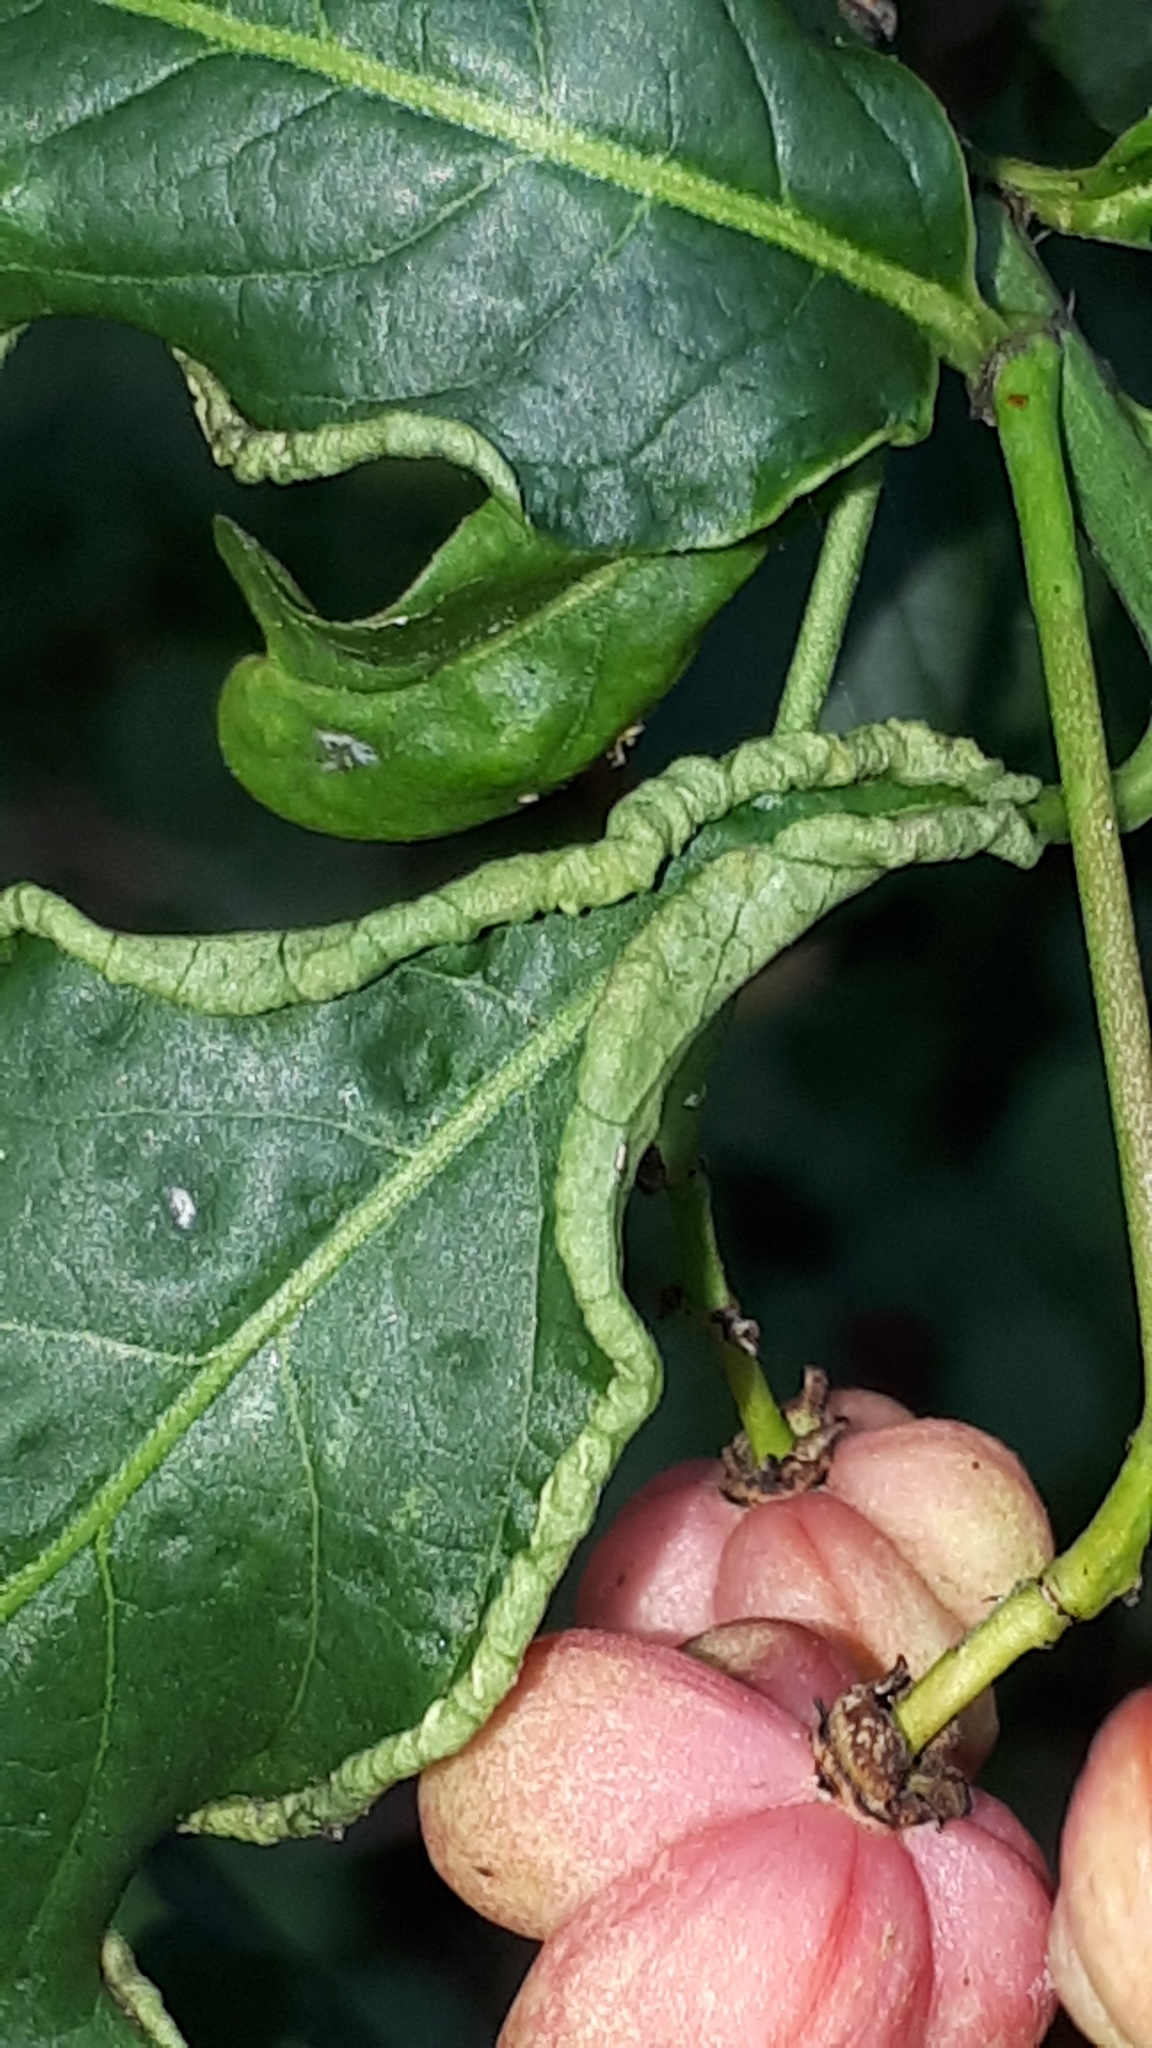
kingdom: Animalia
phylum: Arthropoda
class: Arachnida
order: Trombidiformes
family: Eriophyidae
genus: Stenacis
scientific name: Stenacis evonymi
